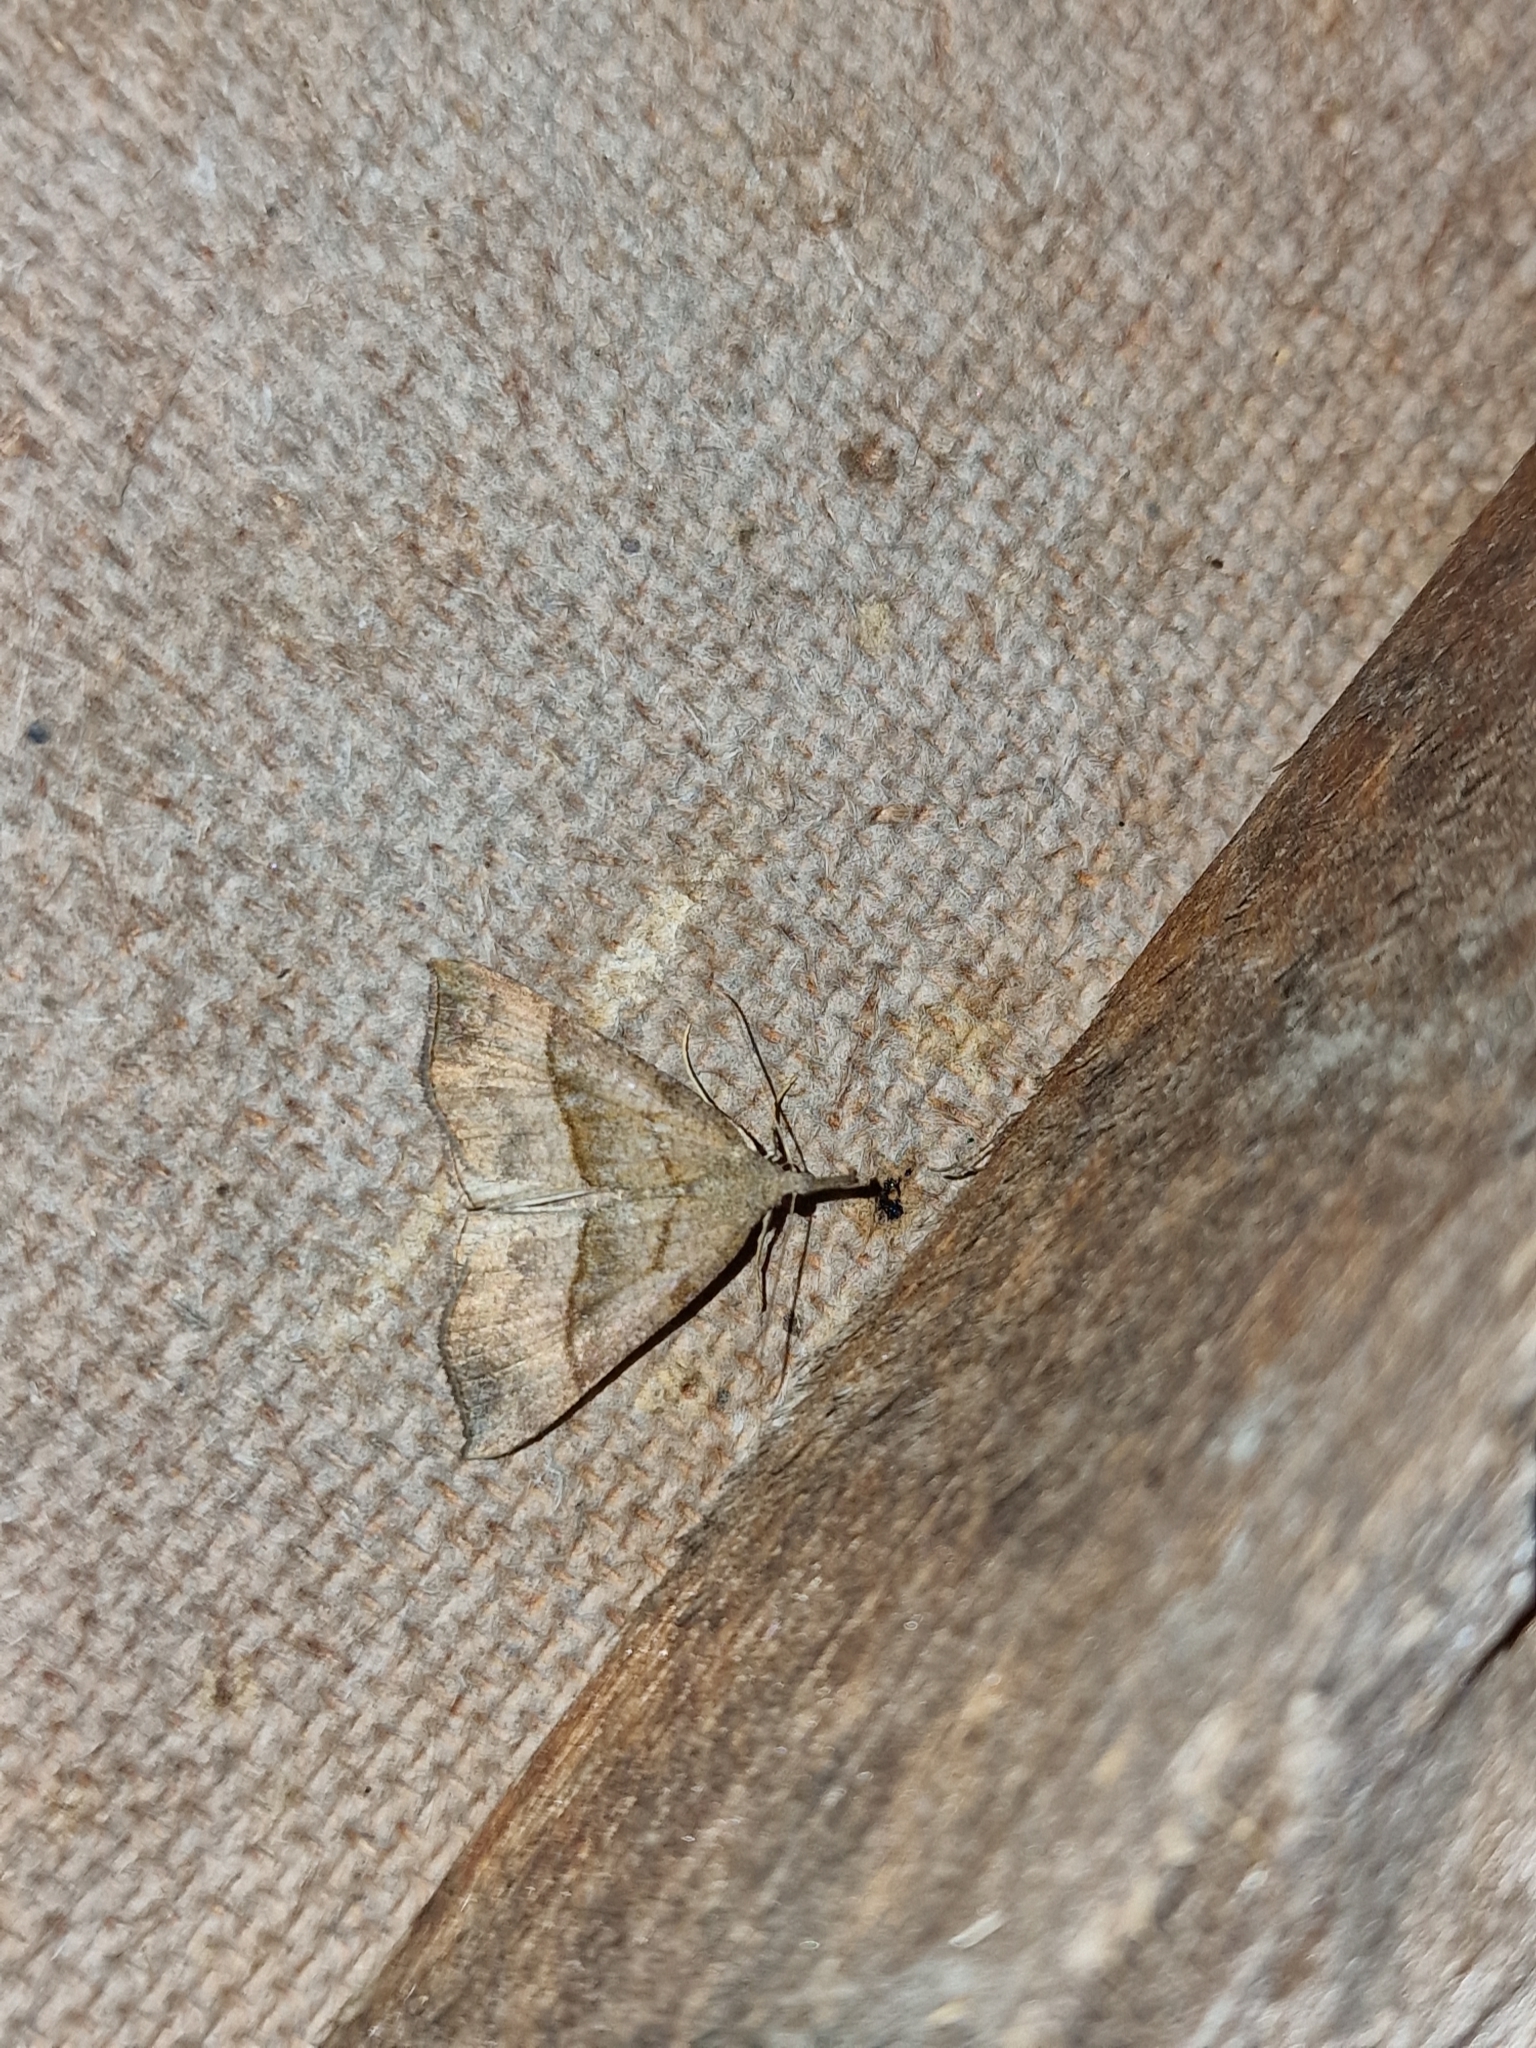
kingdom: Animalia
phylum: Arthropoda
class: Insecta
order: Lepidoptera
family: Erebidae
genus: Hypena
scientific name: Hypena proboscidalis
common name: Snout
